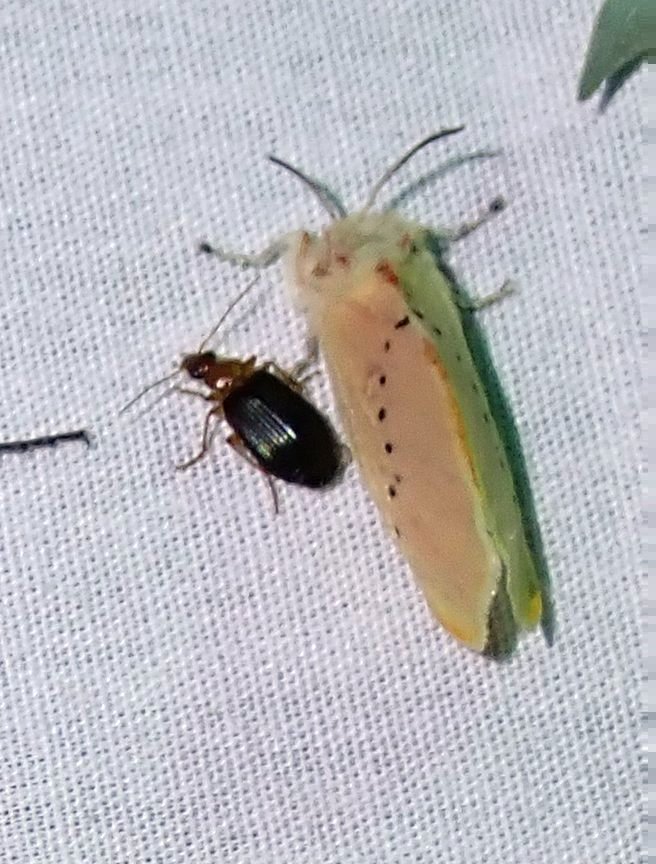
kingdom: Animalia
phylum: Arthropoda
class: Insecta
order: Lepidoptera
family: Megalopygidae
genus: Trosia
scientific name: Trosia obsolescens
